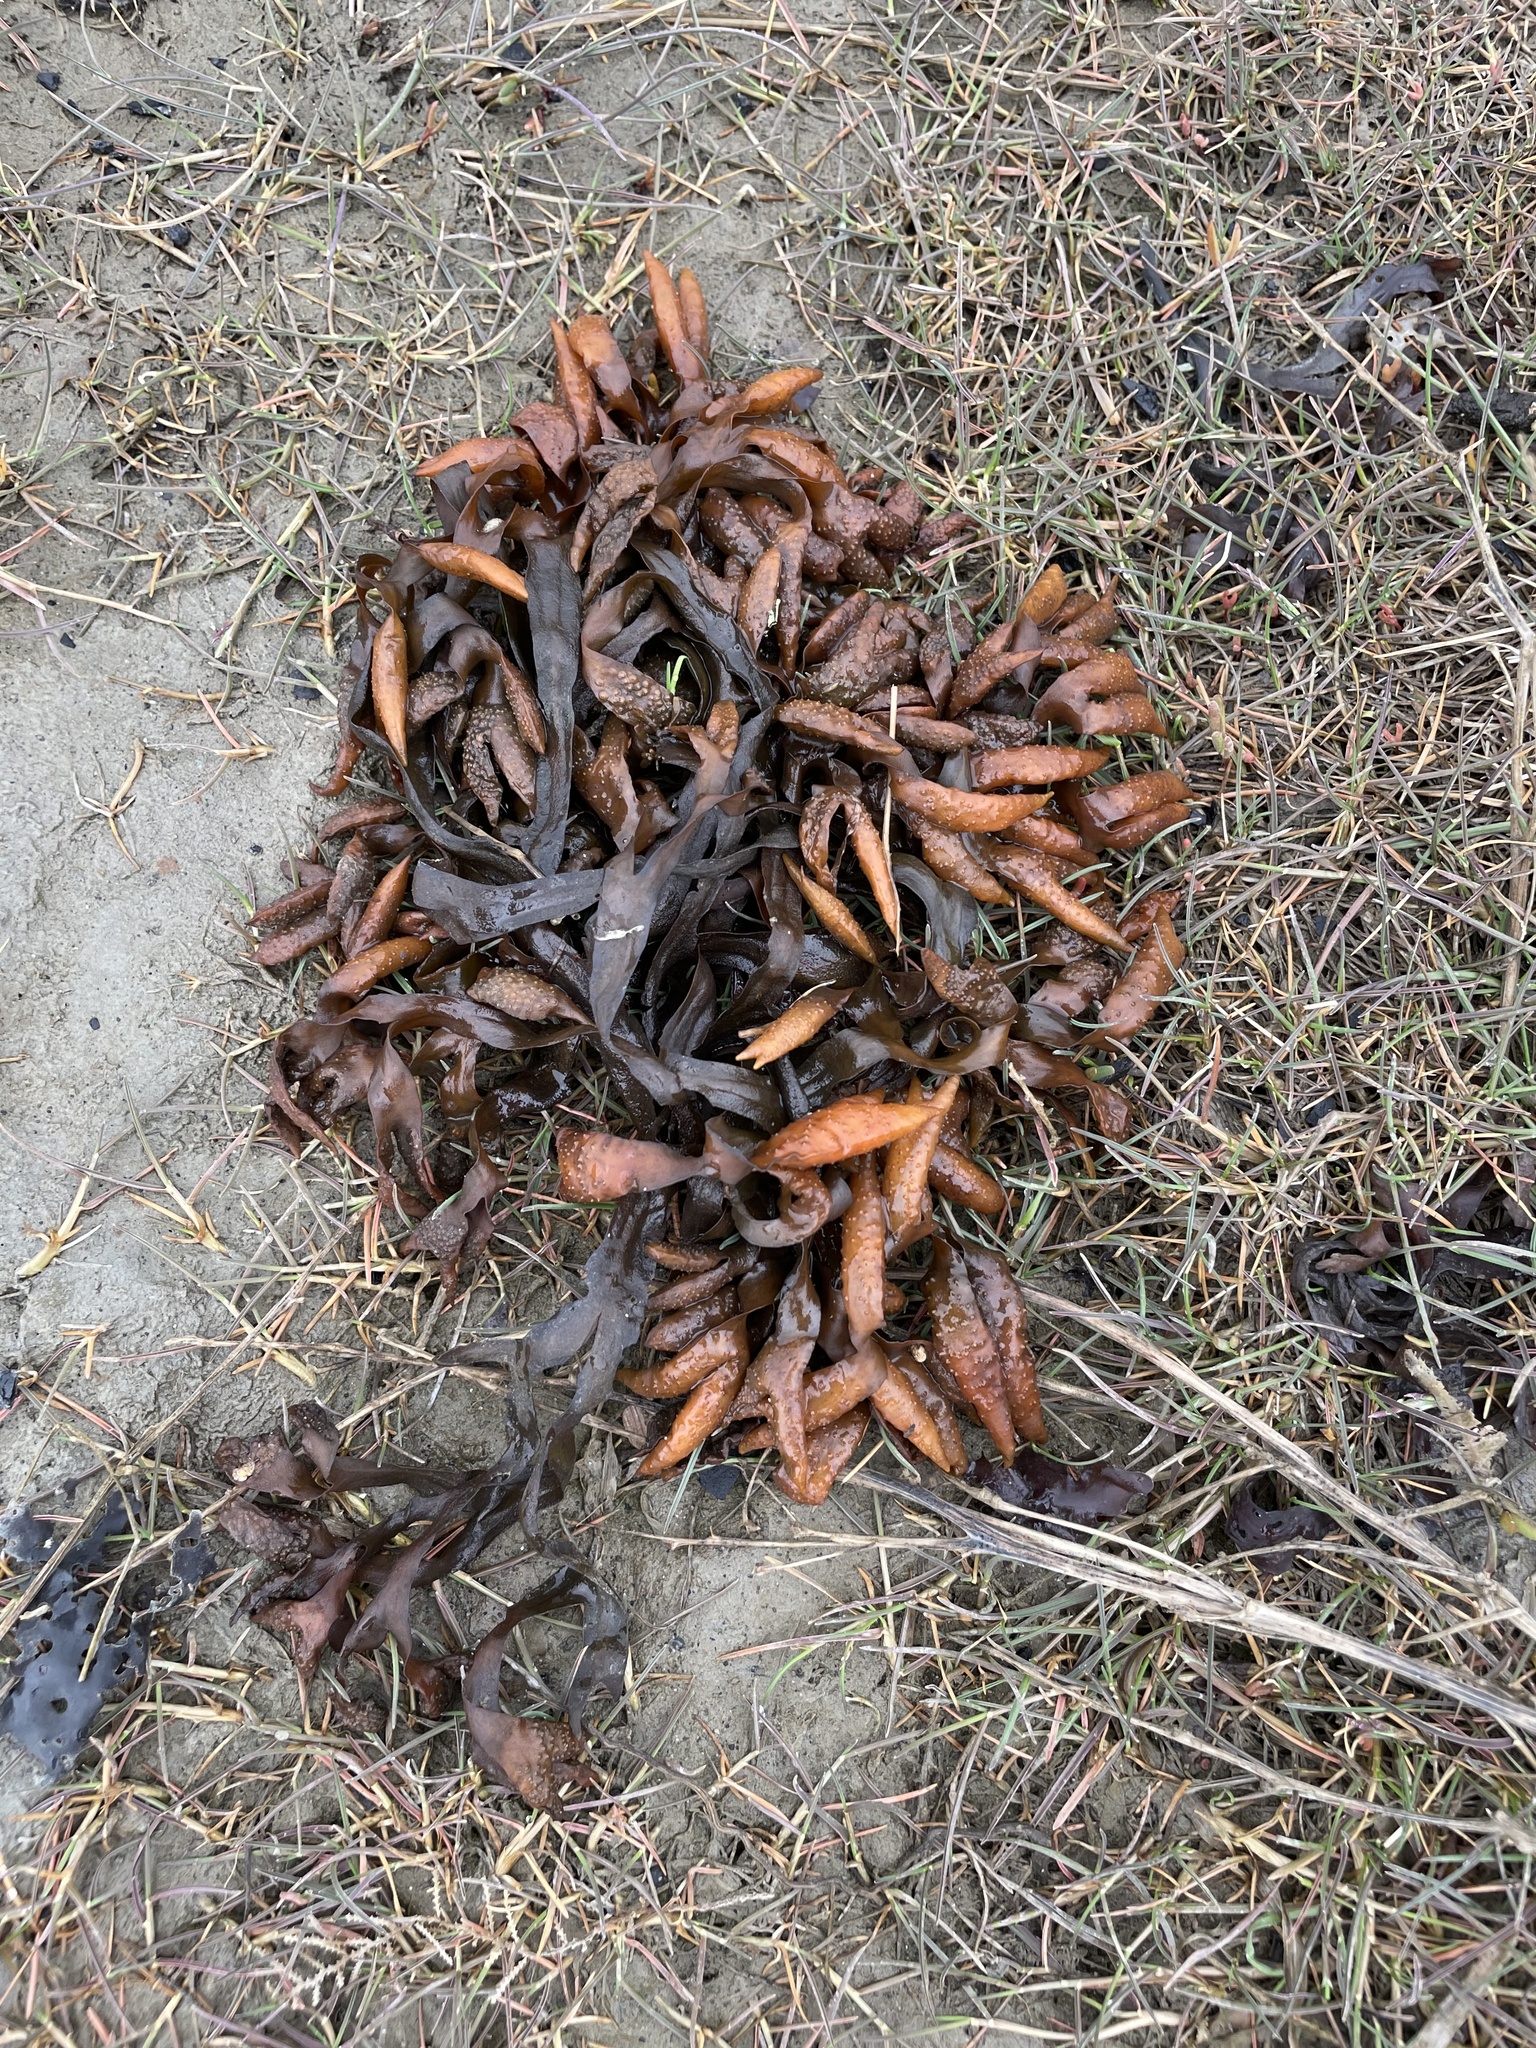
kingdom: Chromista
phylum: Ochrophyta
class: Phaeophyceae
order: Fucales
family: Fucaceae
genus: Fucus
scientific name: Fucus distichus
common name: Rockweed
